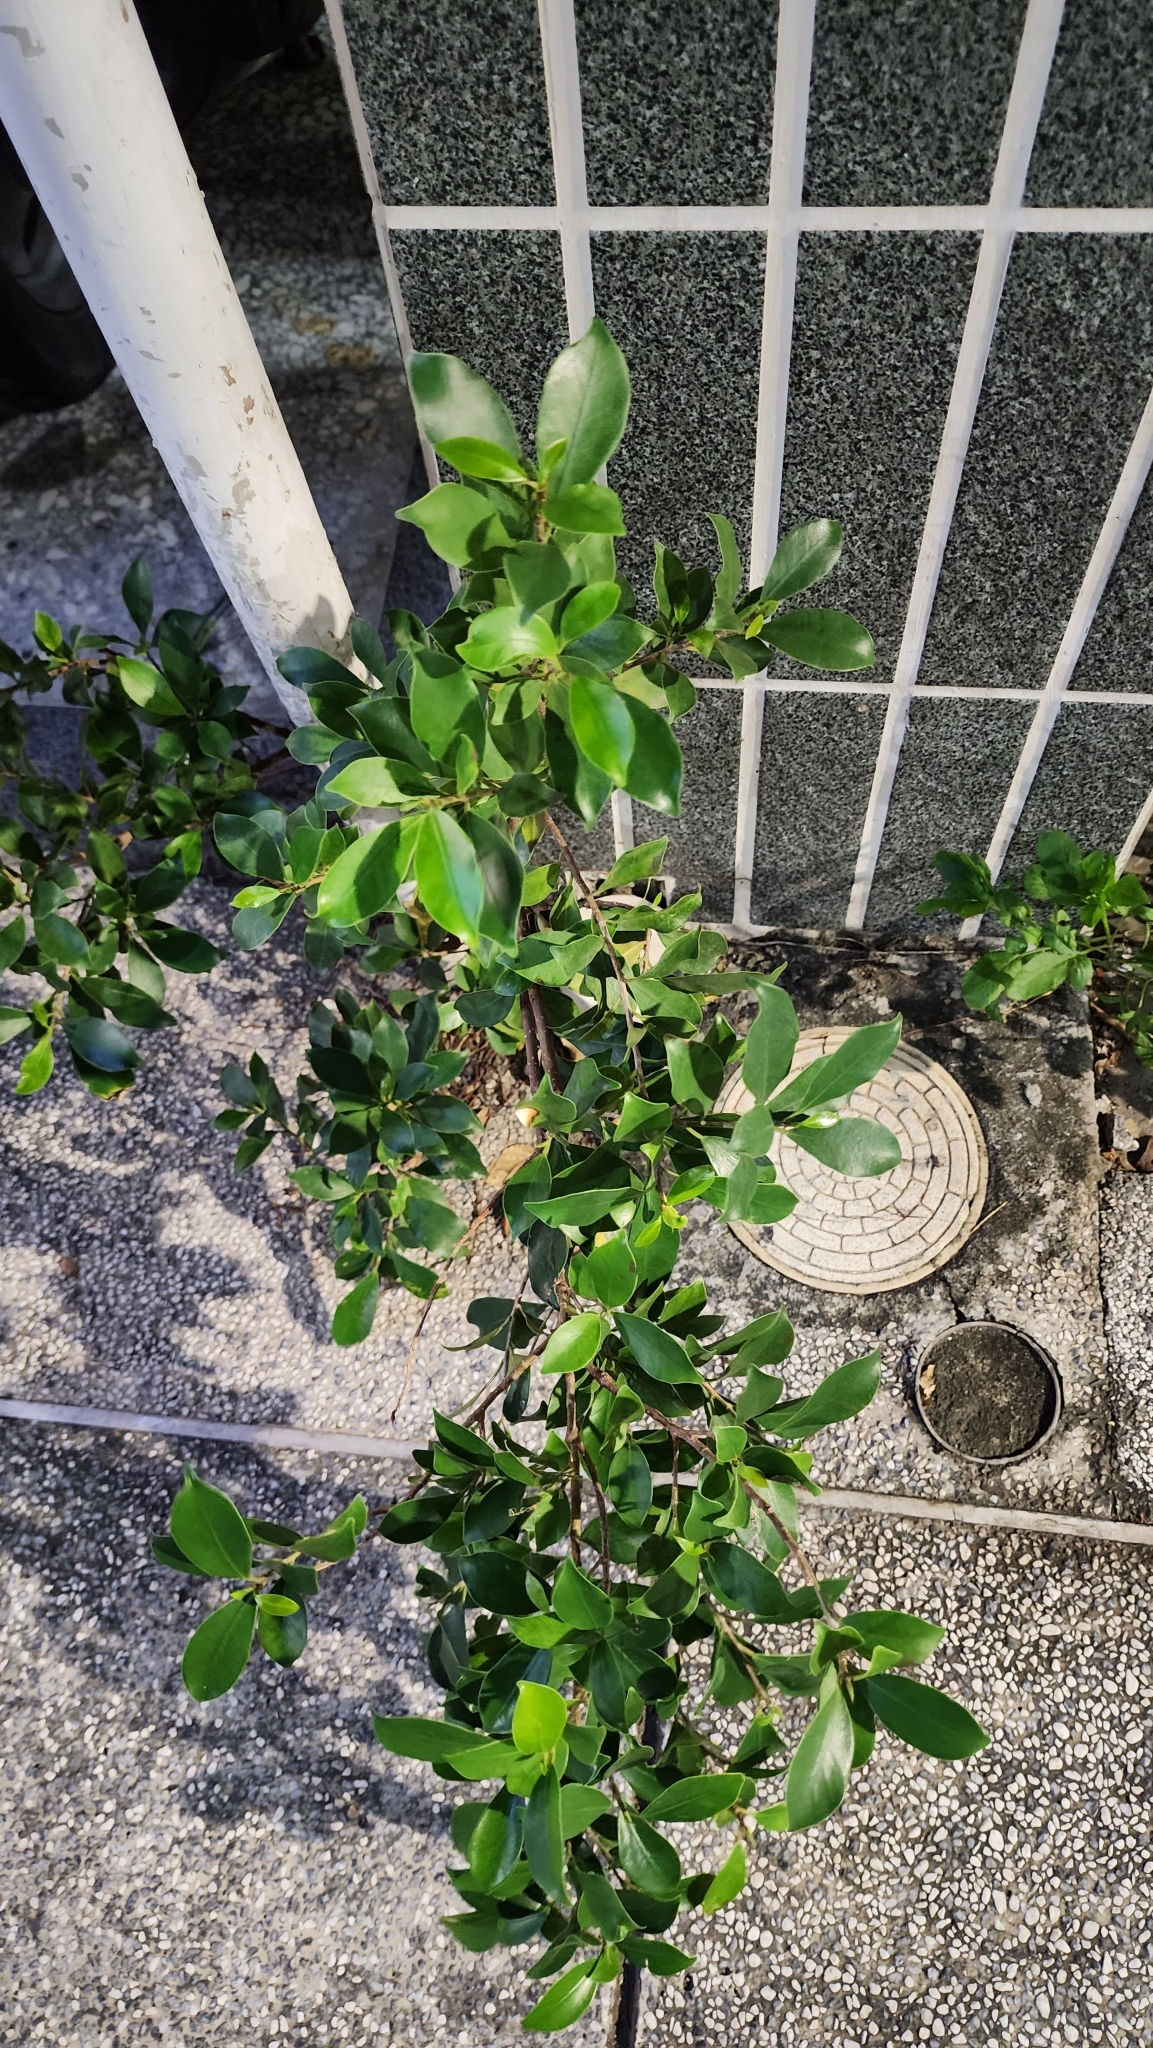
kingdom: Plantae
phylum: Tracheophyta
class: Magnoliopsida
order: Rosales
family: Moraceae
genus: Ficus
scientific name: Ficus microcarpa
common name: Chinese banyan
